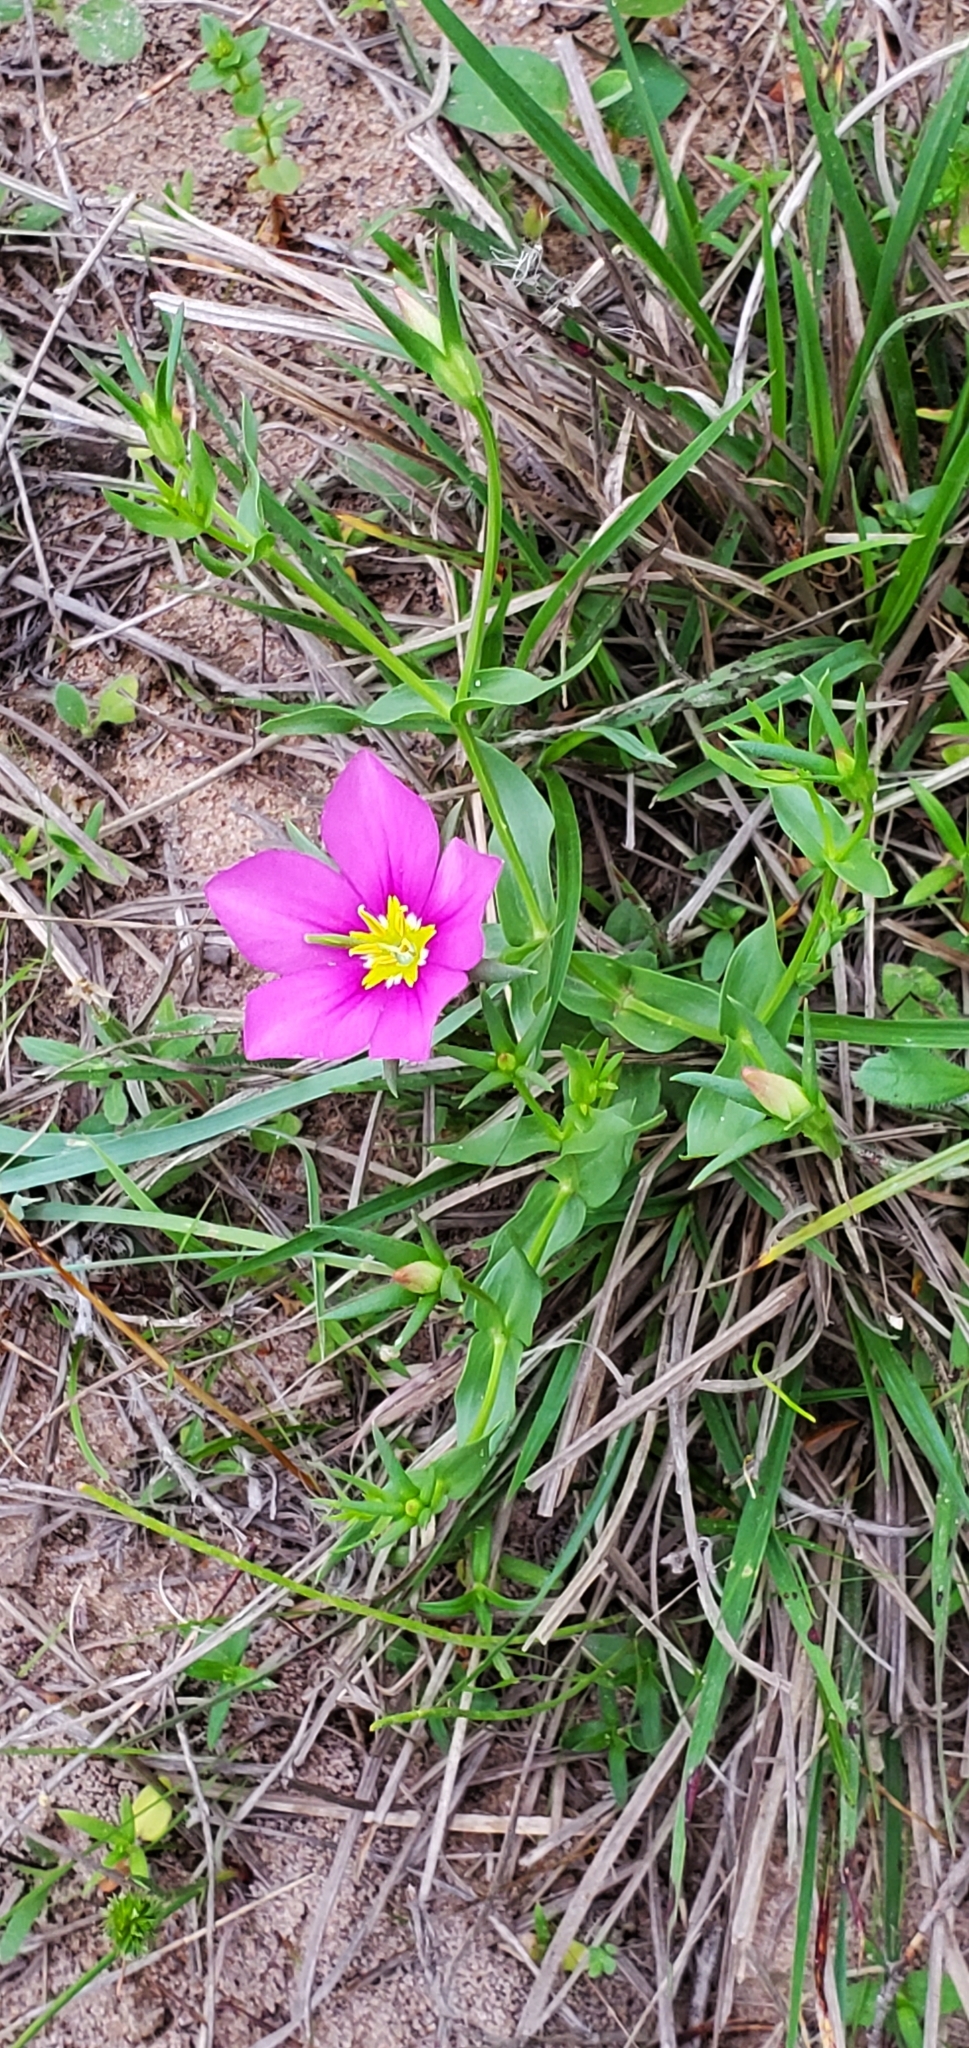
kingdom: Plantae
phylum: Tracheophyta
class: Magnoliopsida
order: Gentianales
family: Gentianaceae
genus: Sabatia
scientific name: Sabatia campestris
